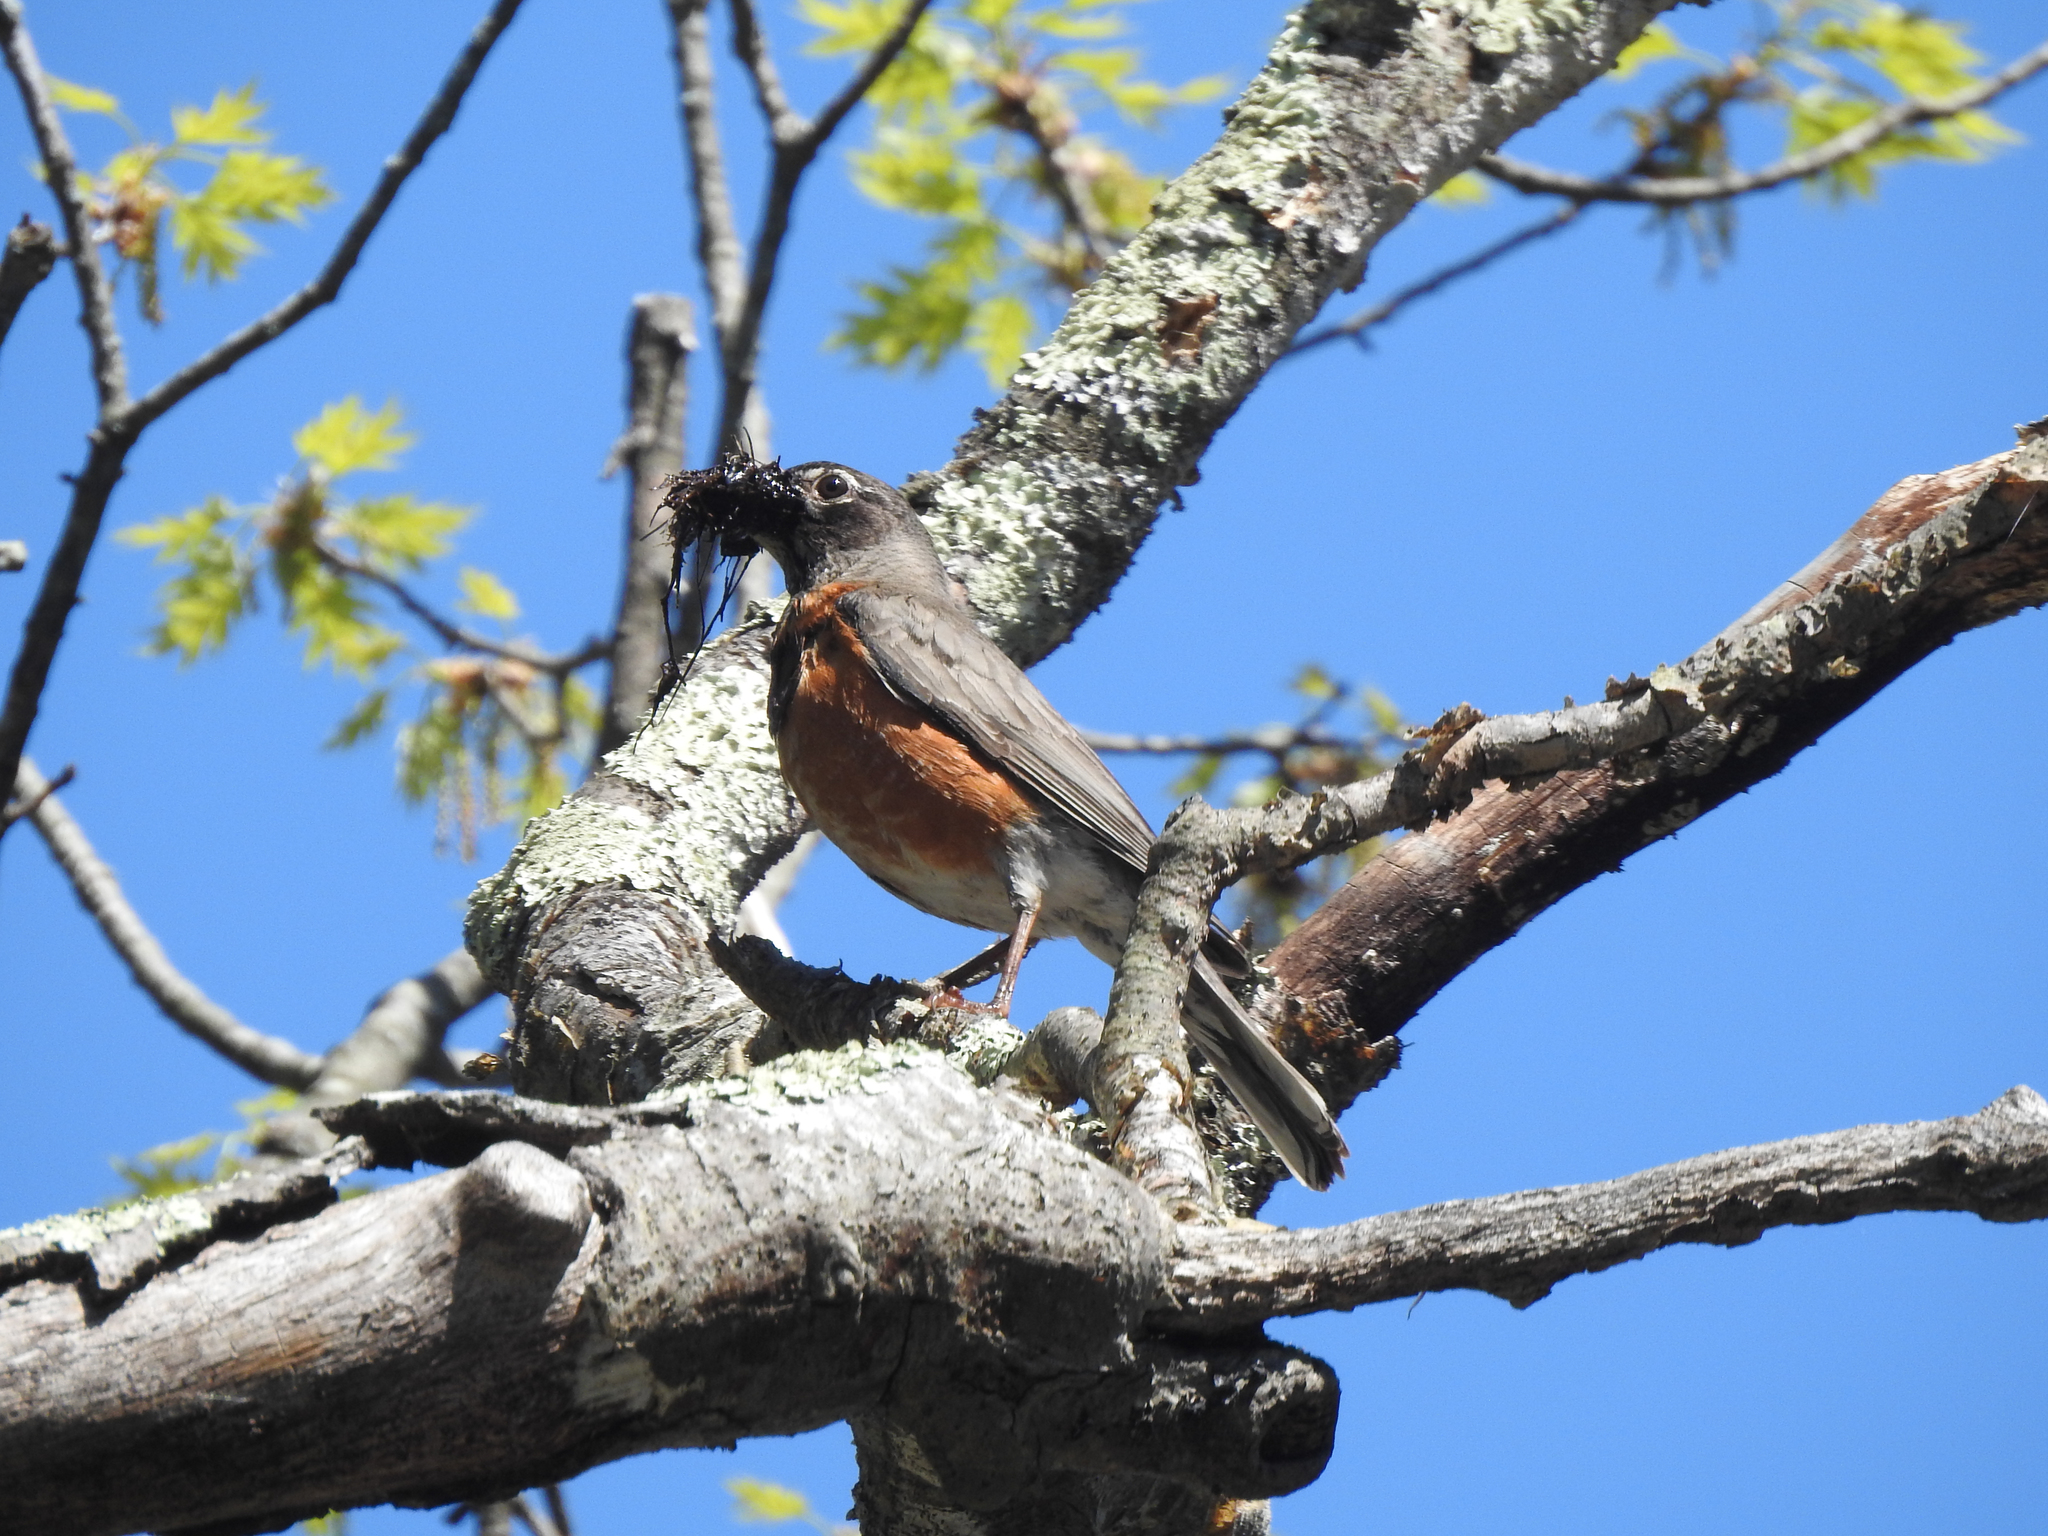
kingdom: Animalia
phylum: Chordata
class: Aves
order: Passeriformes
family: Turdidae
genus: Turdus
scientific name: Turdus migratorius
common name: American robin
